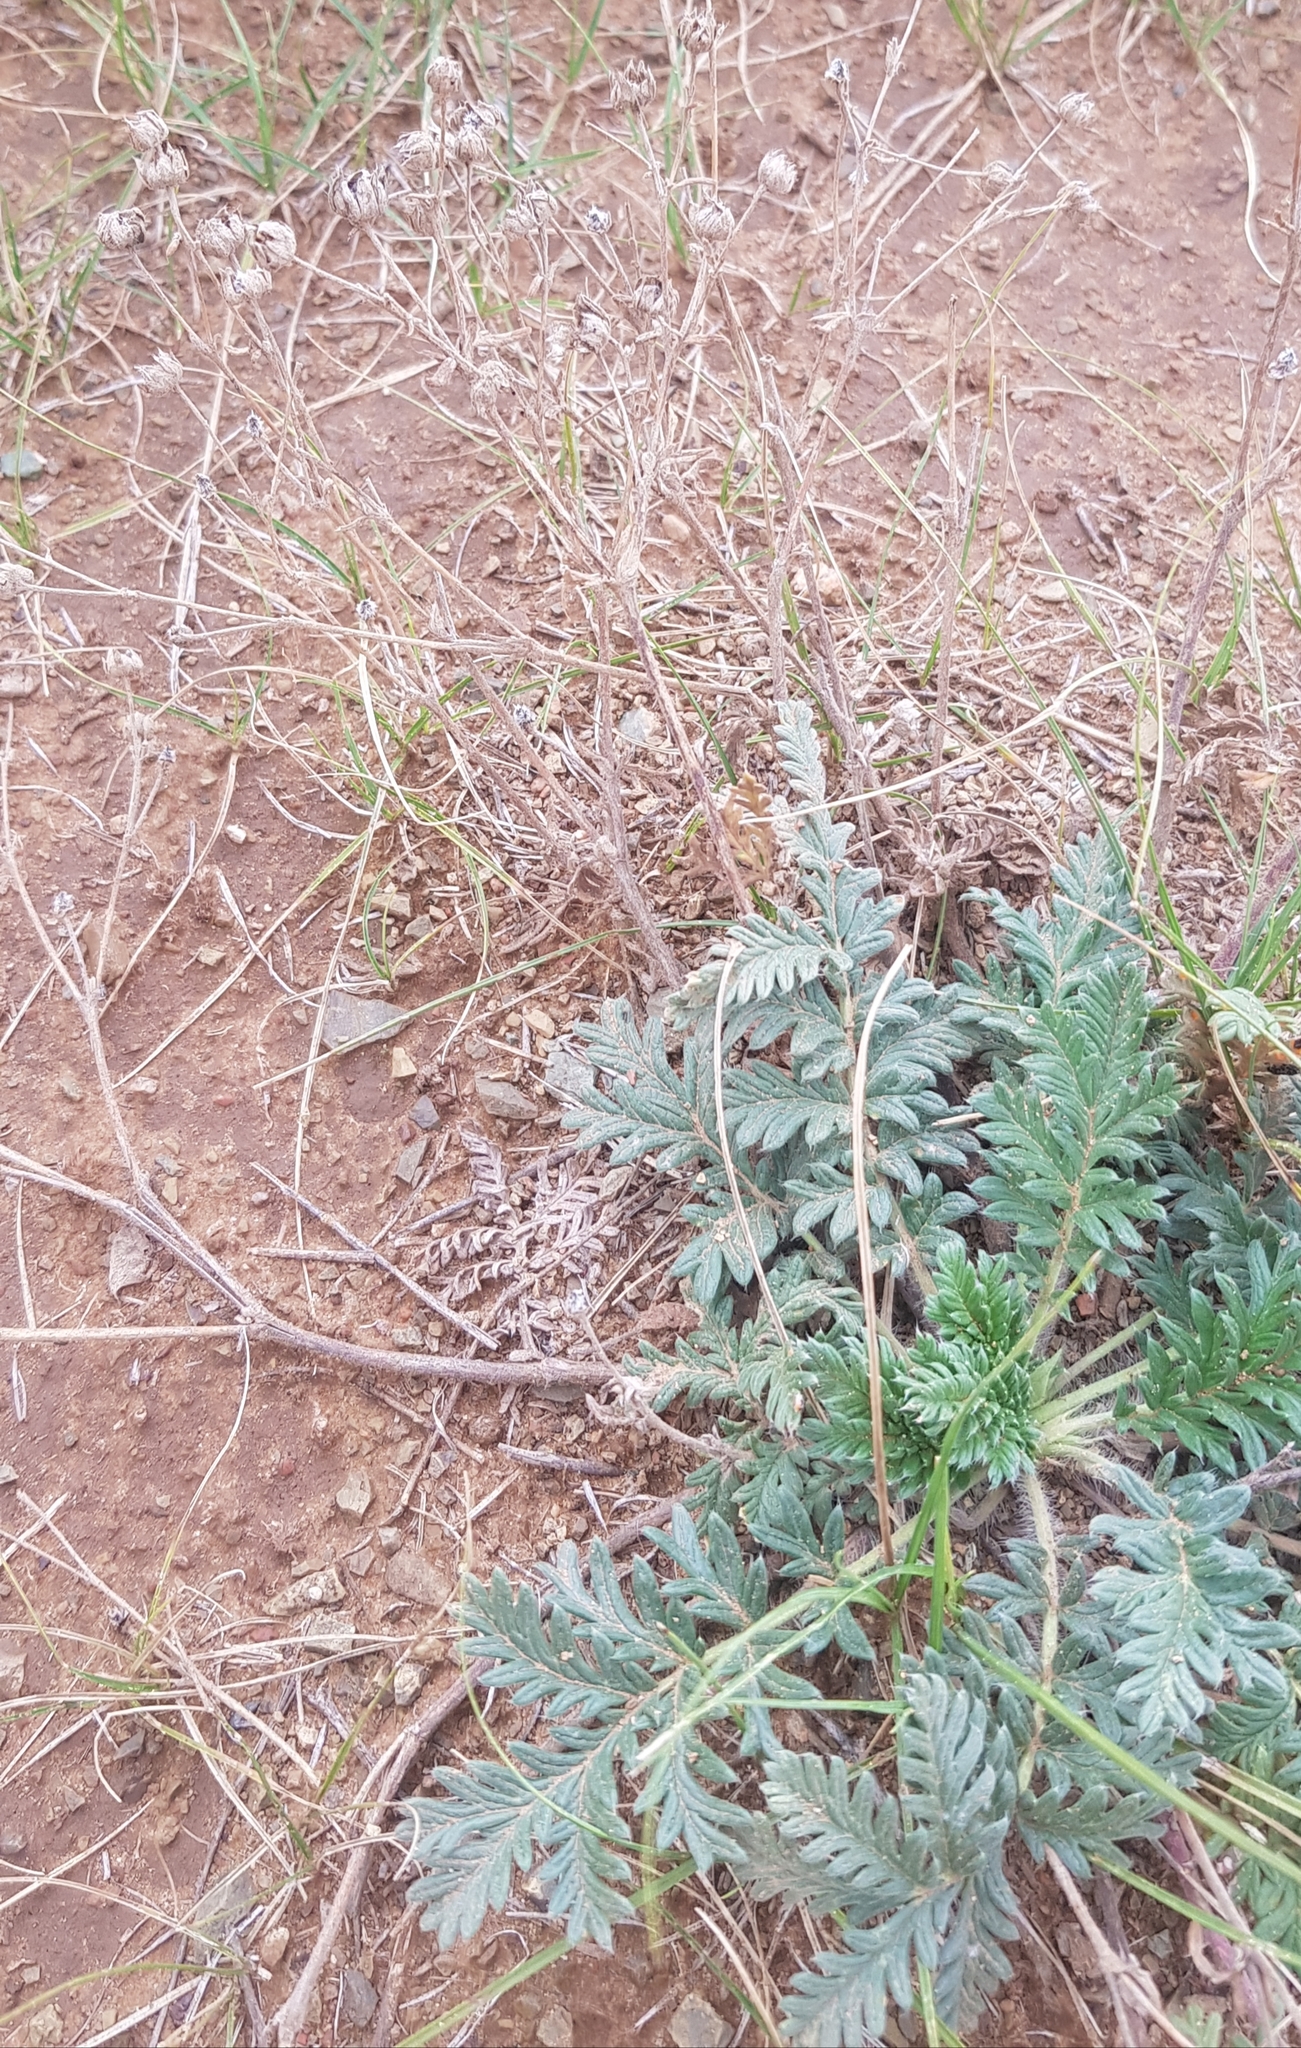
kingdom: Plantae
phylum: Tracheophyta
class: Magnoliopsida
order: Rosales
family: Rosaceae
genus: Potentilla
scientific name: Potentilla sericea
